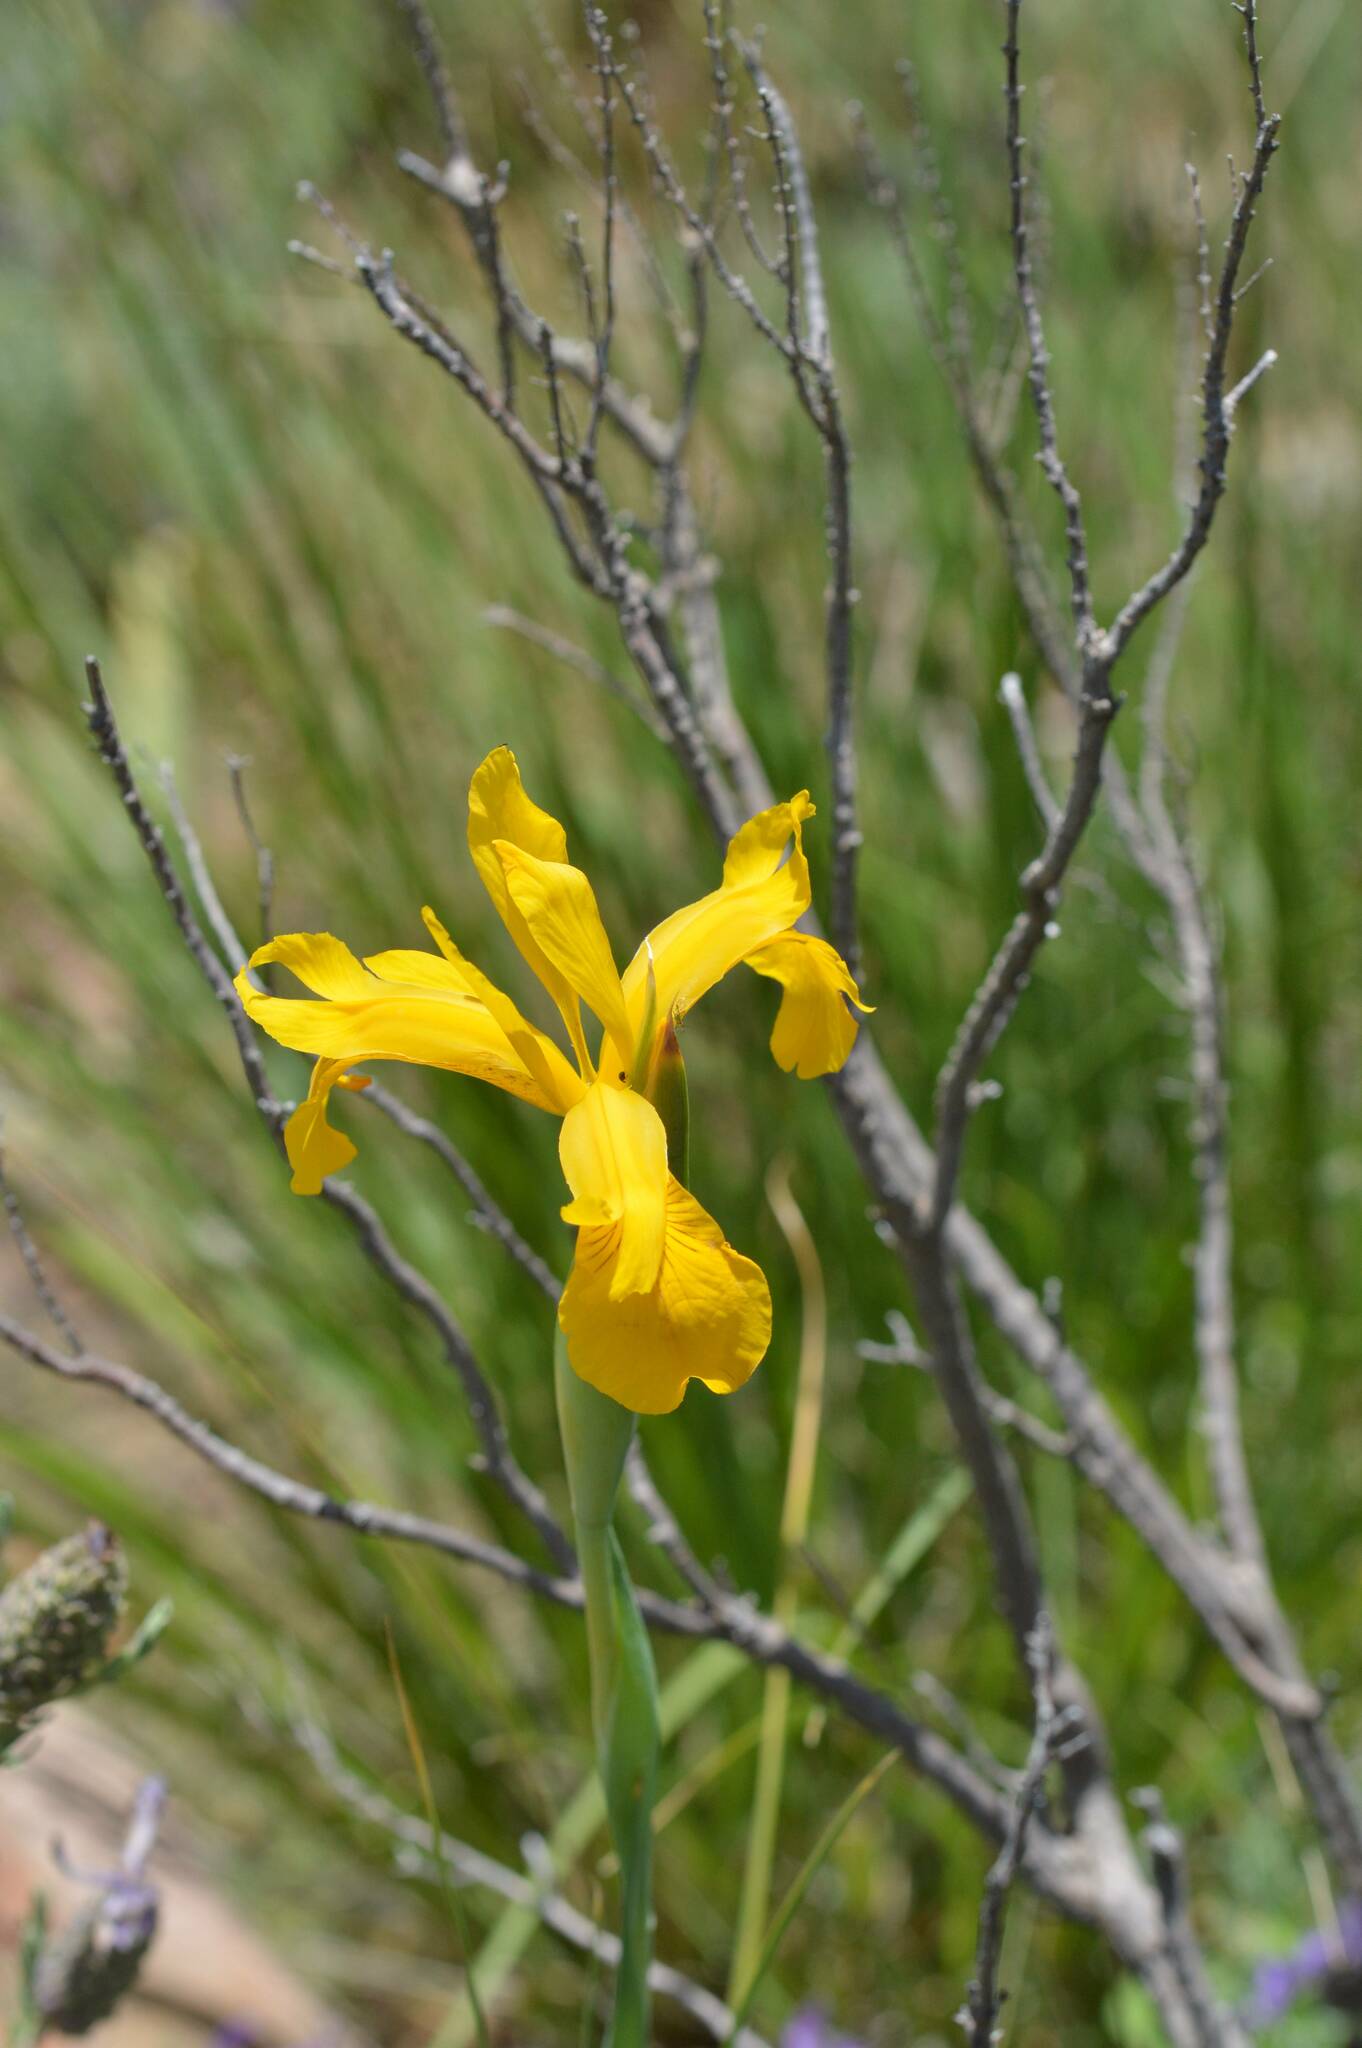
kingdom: Plantae
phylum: Tracheophyta
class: Liliopsida
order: Asparagales
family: Iridaceae
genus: Iris
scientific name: Iris juncea
